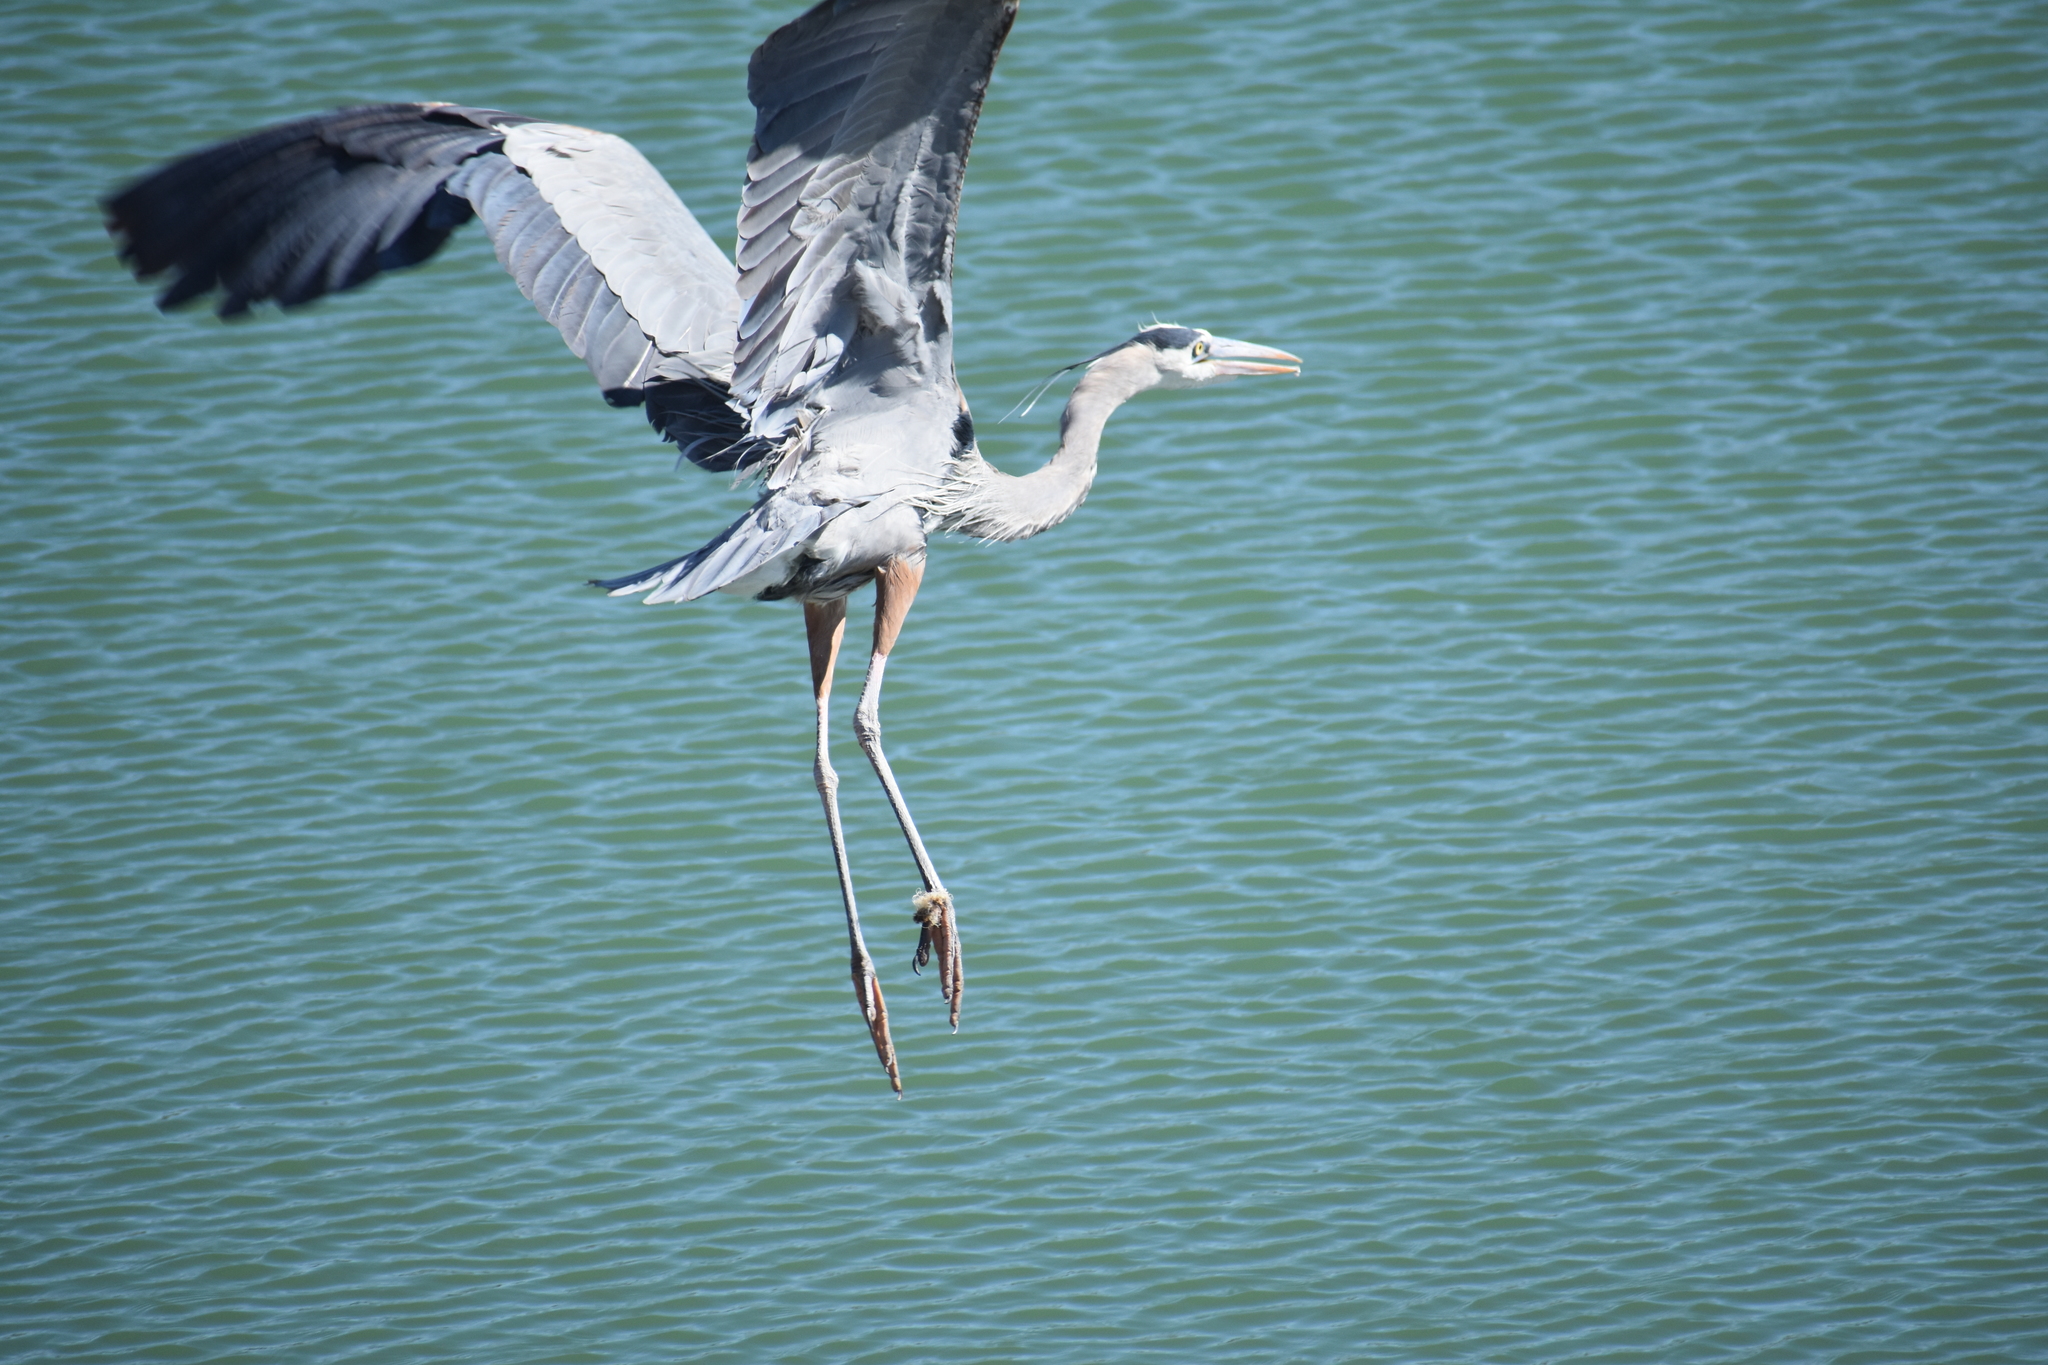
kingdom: Animalia
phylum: Chordata
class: Aves
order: Pelecaniformes
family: Ardeidae
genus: Ardea
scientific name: Ardea herodias
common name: Great blue heron
